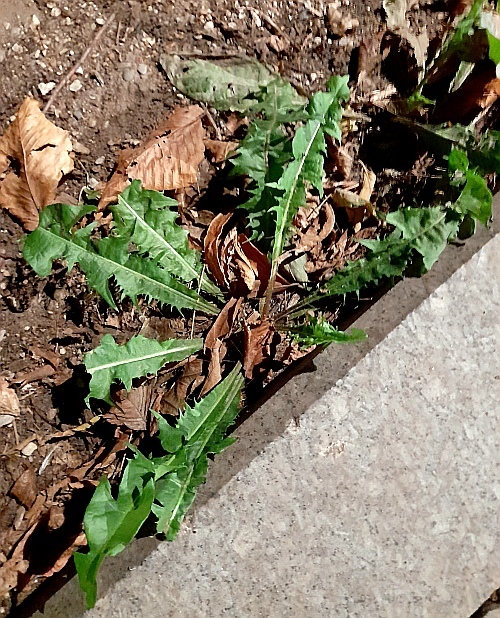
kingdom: Plantae
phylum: Tracheophyta
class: Magnoliopsida
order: Asterales
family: Asteraceae
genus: Taraxacum
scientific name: Taraxacum officinale
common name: Common dandelion
